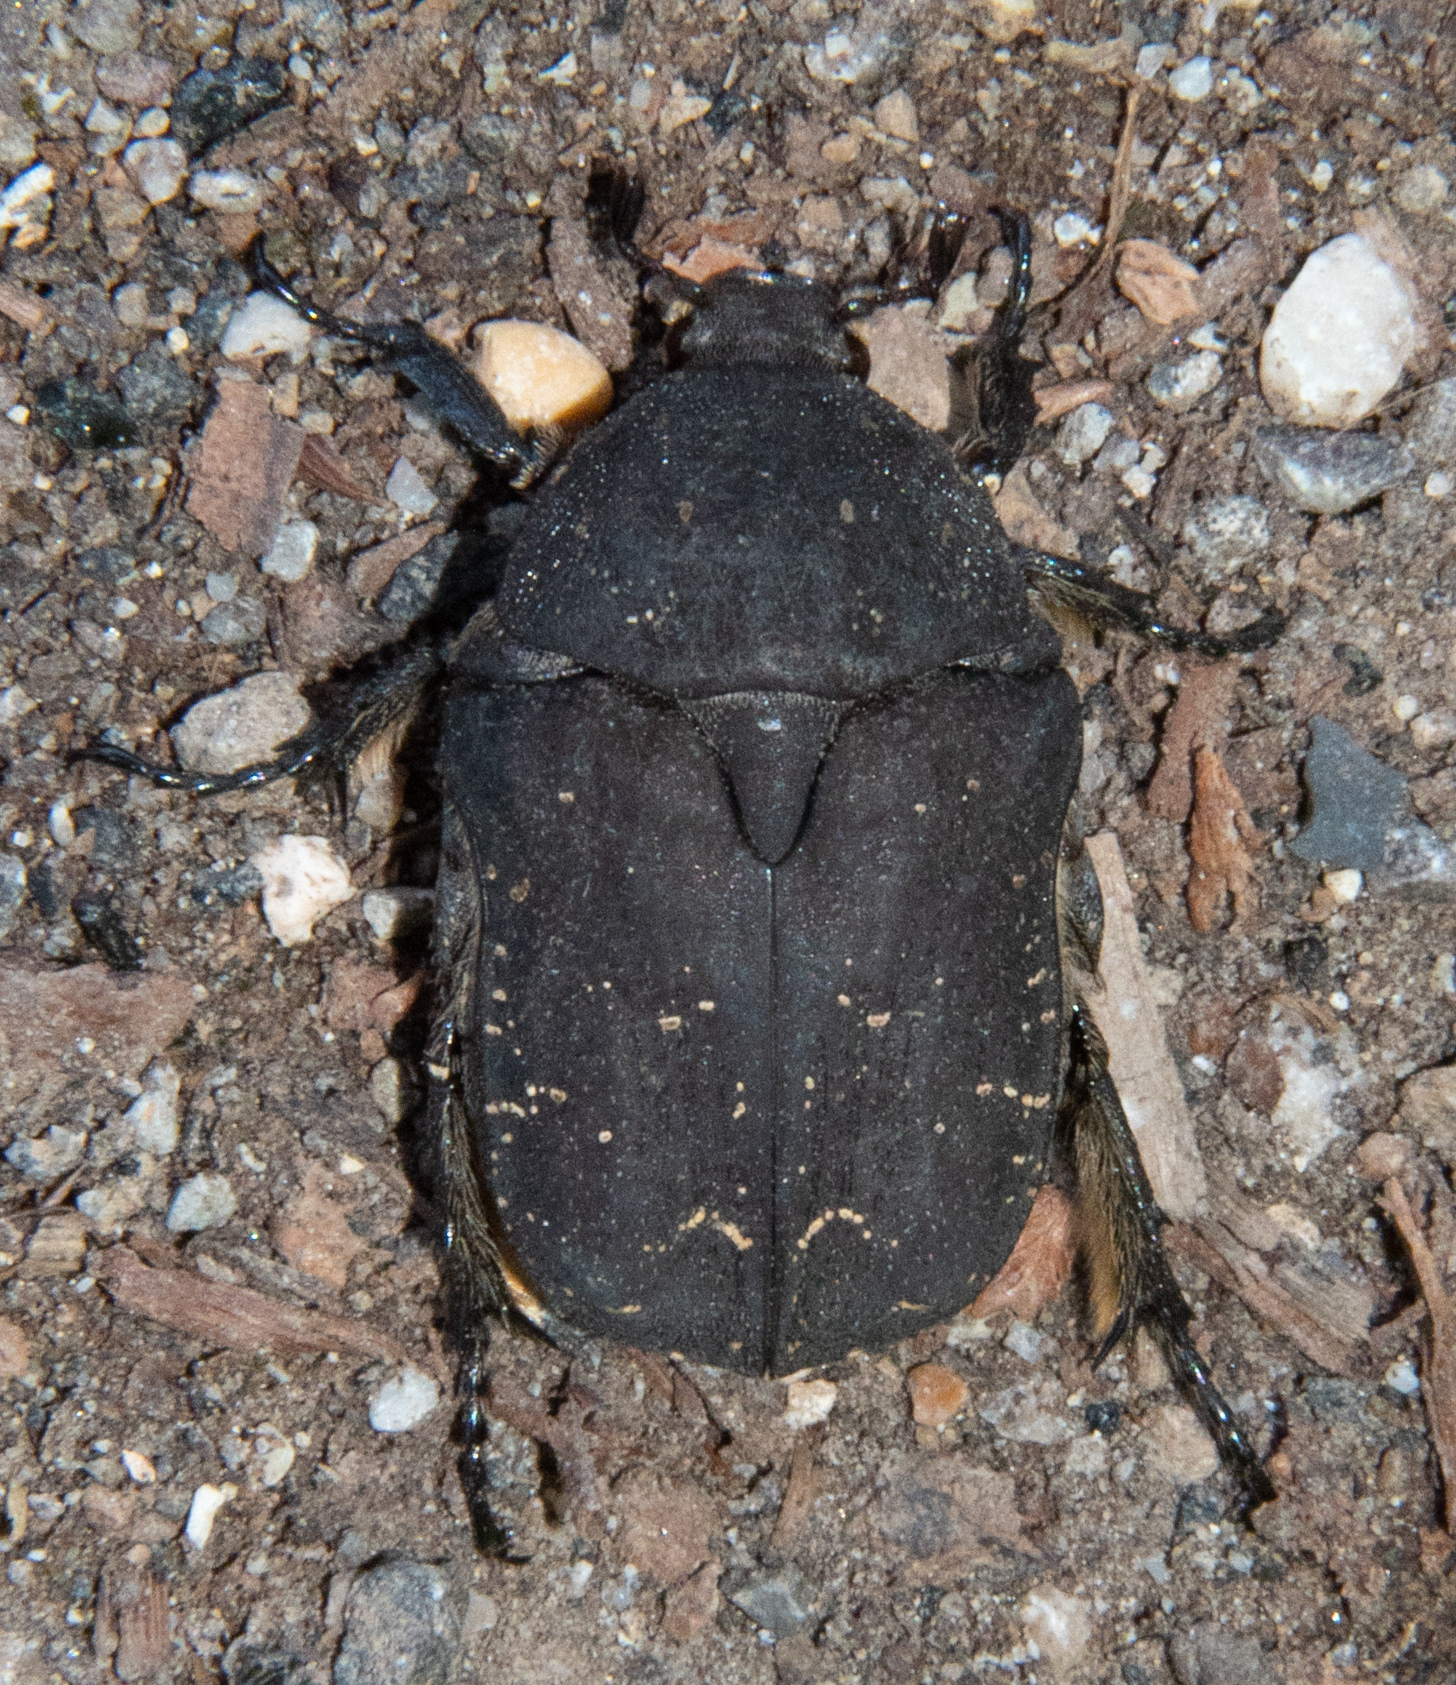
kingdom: Animalia
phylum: Arthropoda
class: Insecta
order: Coleoptera
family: Scarabaeidae
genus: Protaetia
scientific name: Protaetia morio
